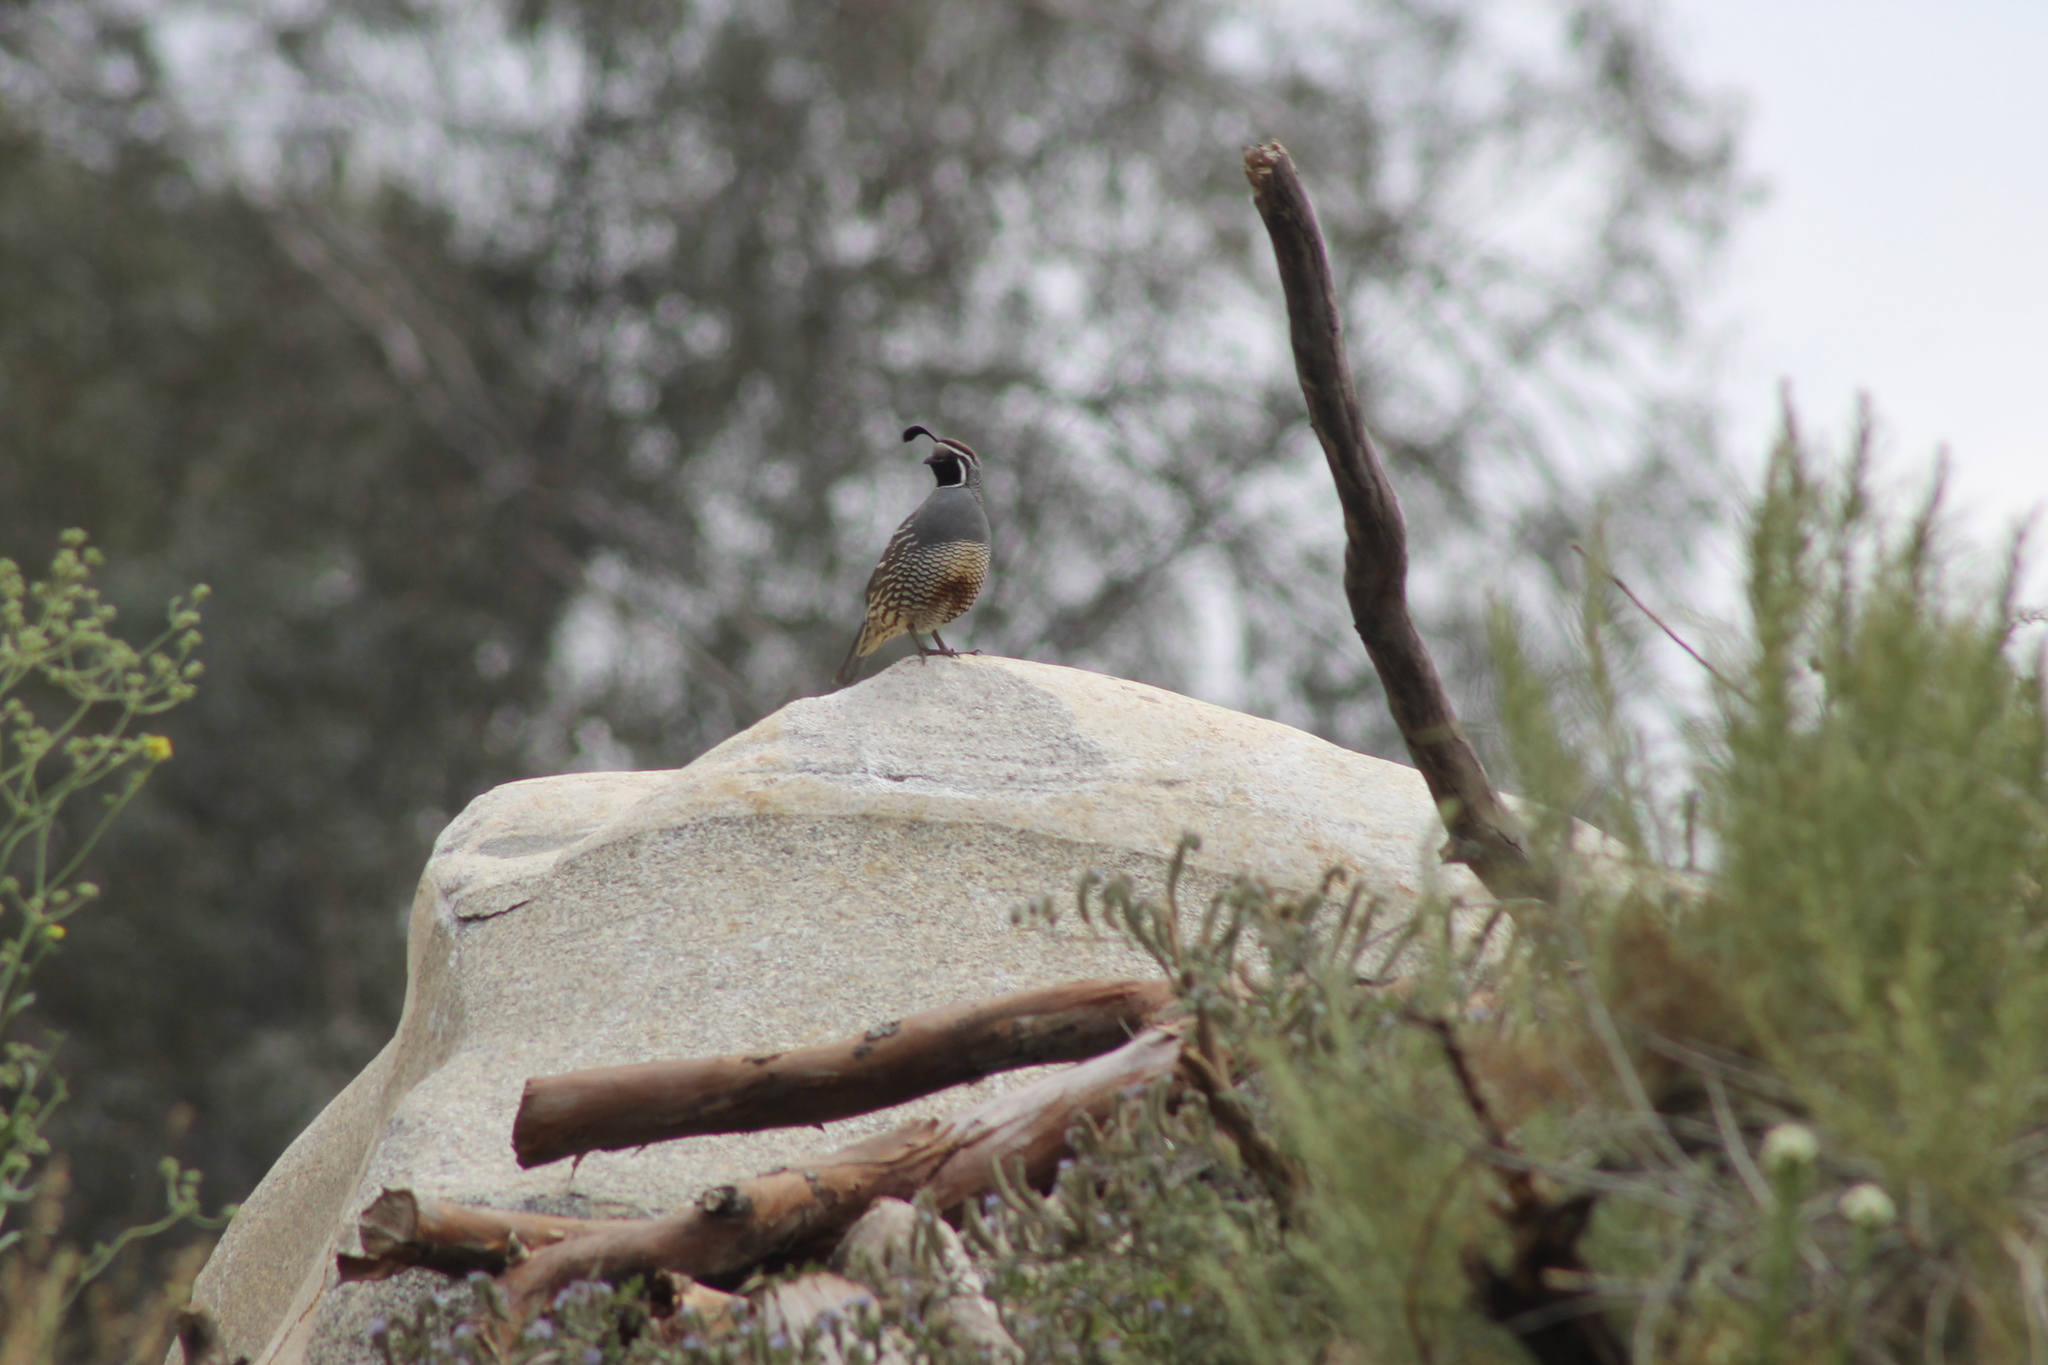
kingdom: Animalia
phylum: Chordata
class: Aves
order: Galliformes
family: Odontophoridae
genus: Callipepla
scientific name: Callipepla californica
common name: California quail
